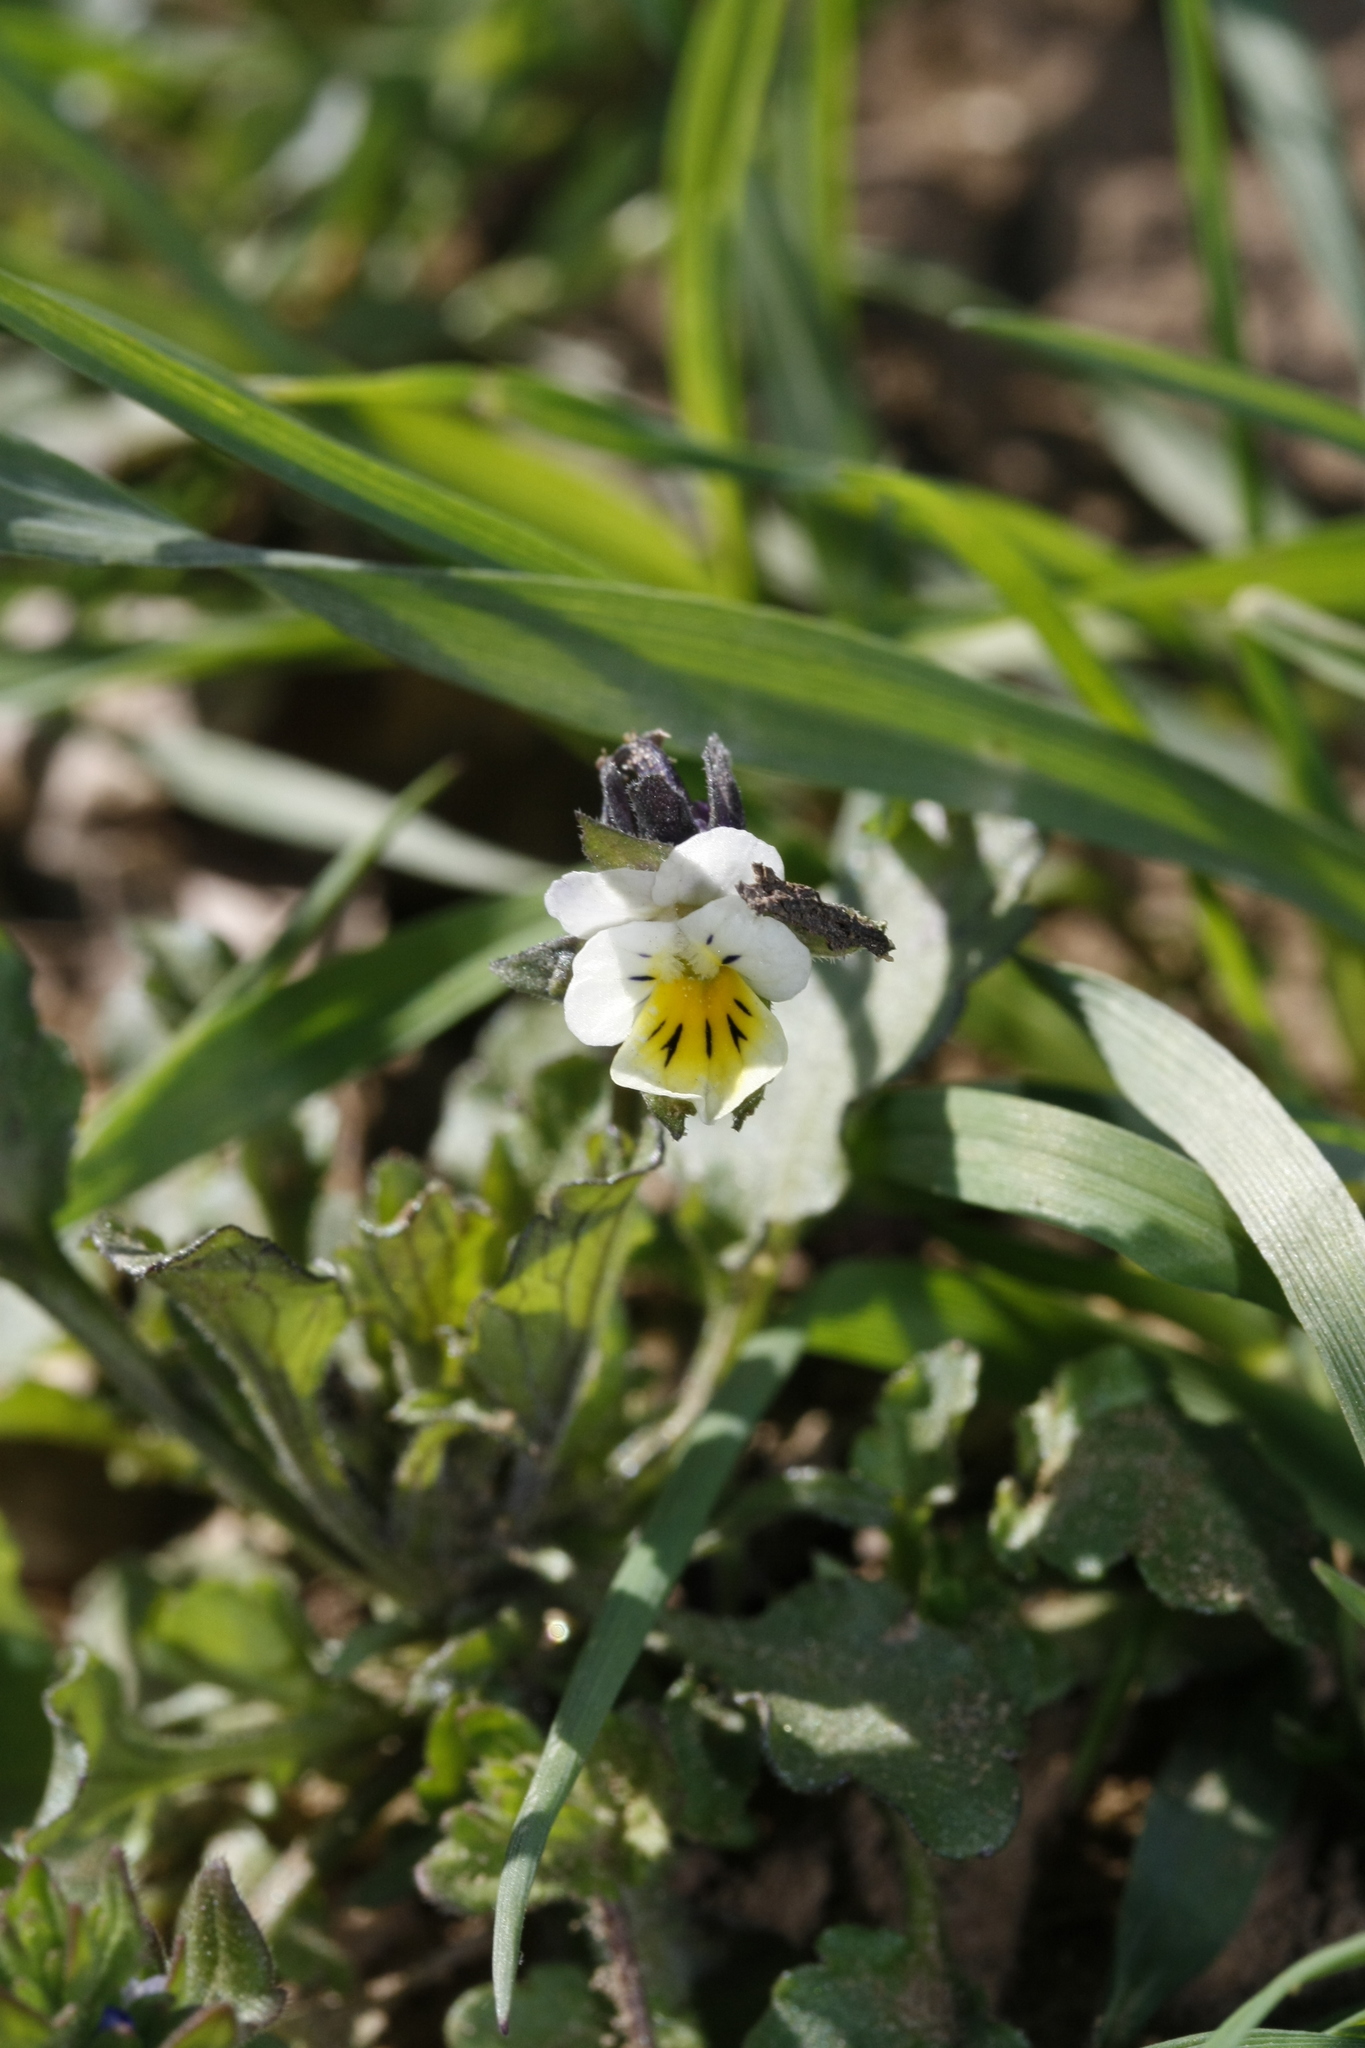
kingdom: Plantae
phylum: Tracheophyta
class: Magnoliopsida
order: Malpighiales
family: Violaceae
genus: Viola
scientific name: Viola arvensis
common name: Field pansy
